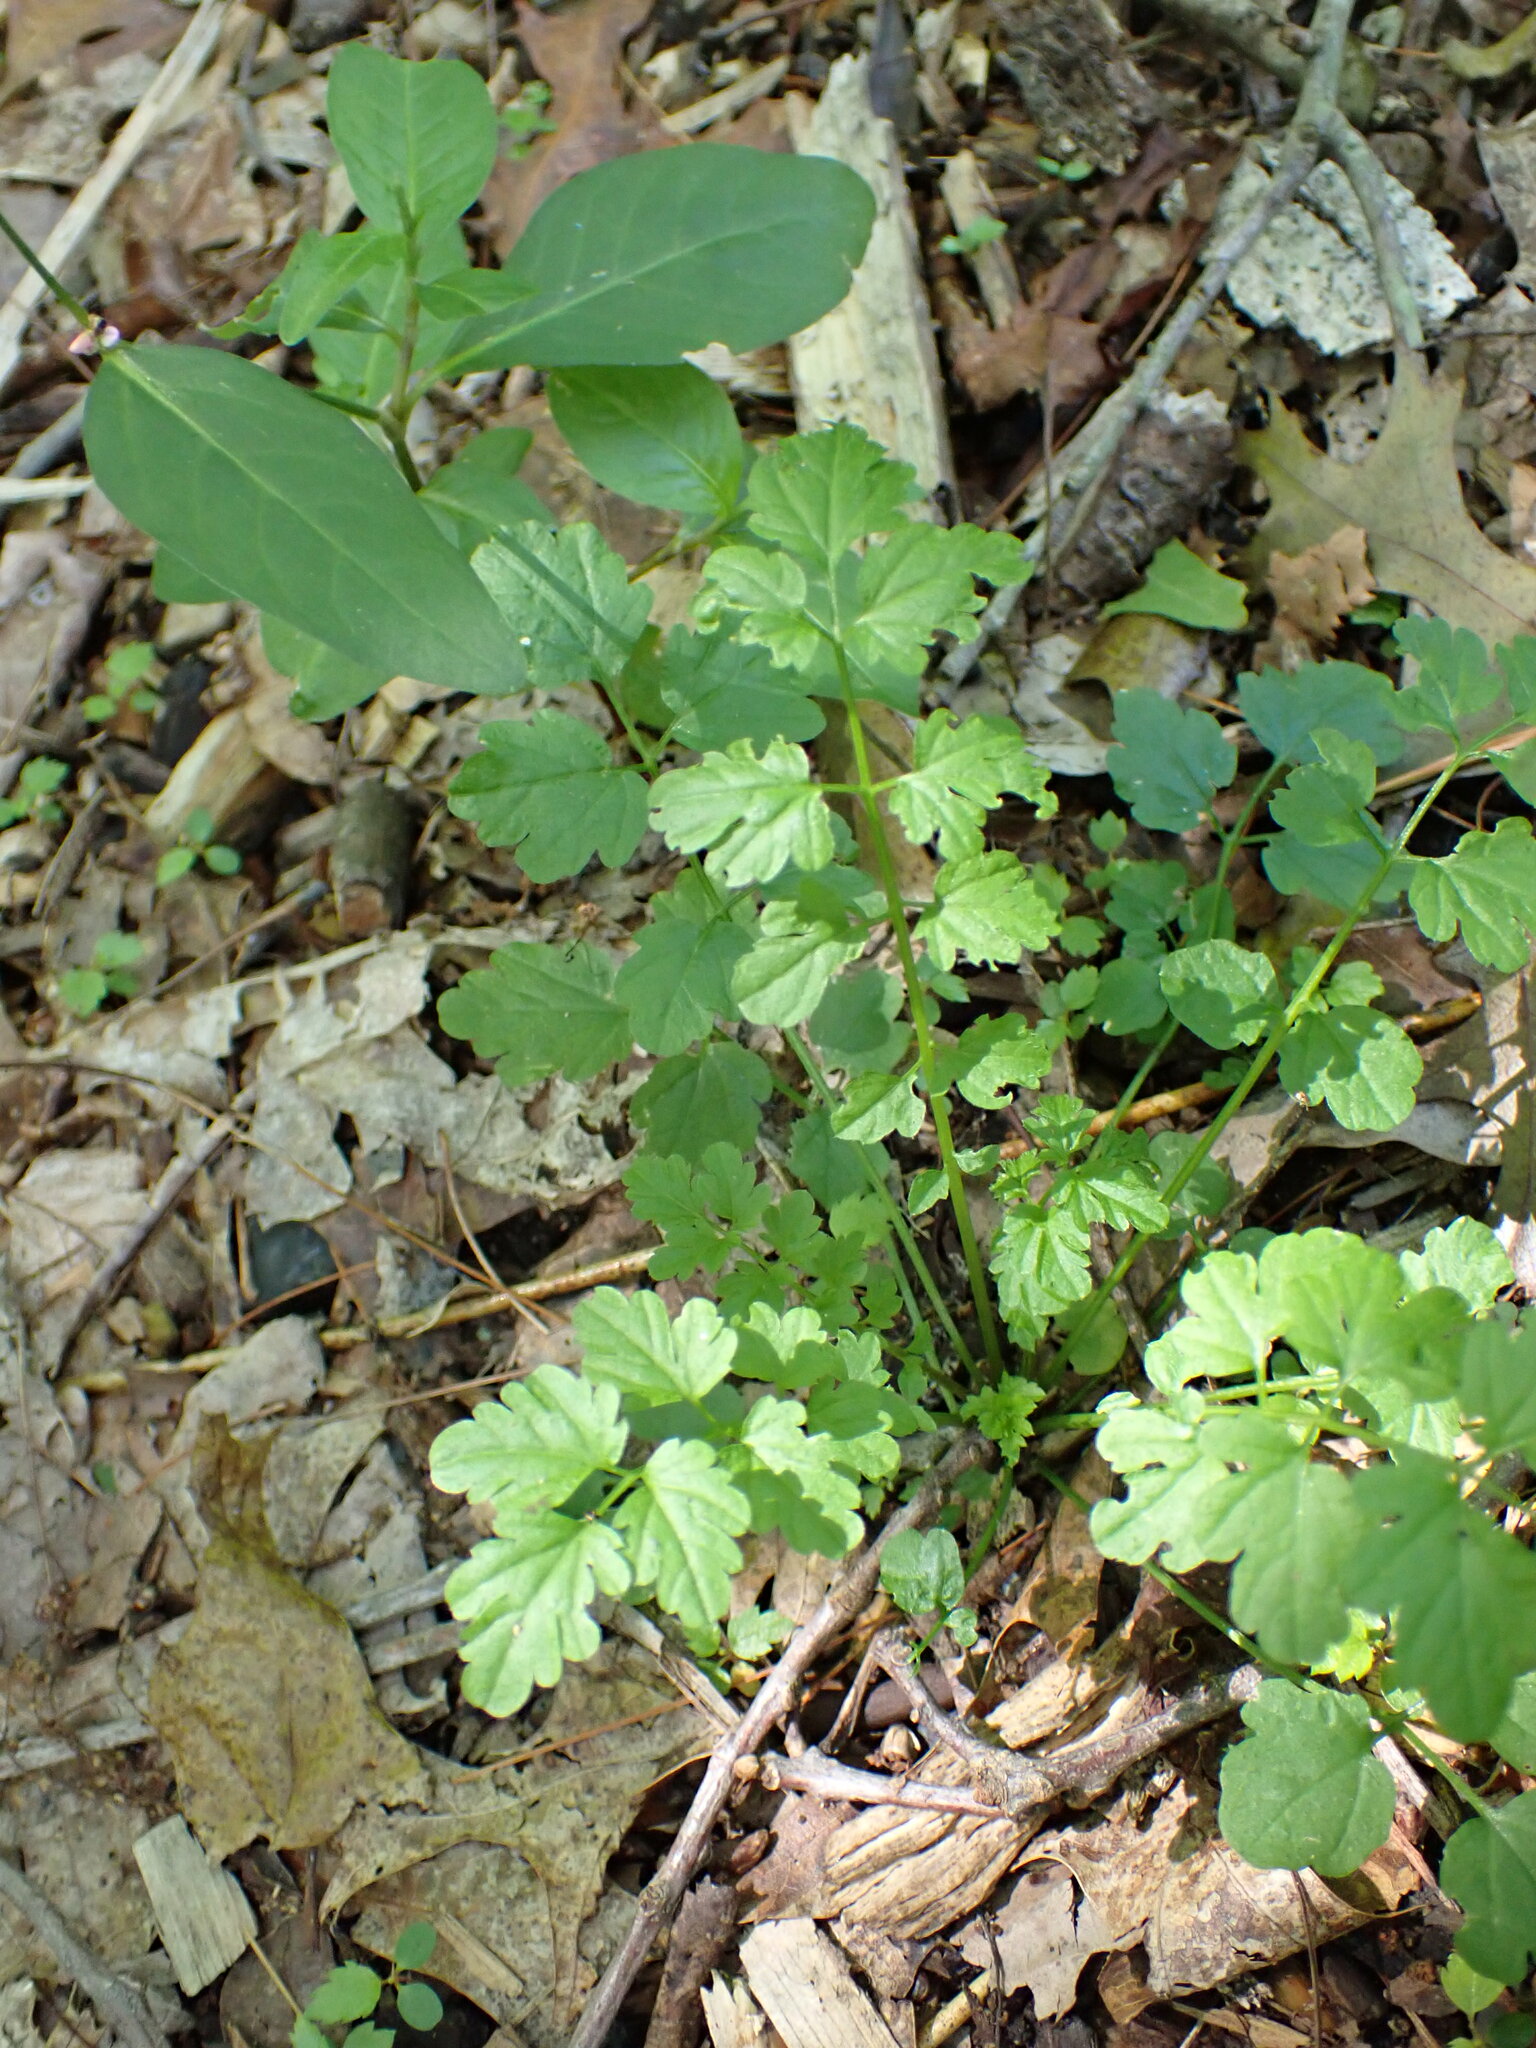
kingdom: Plantae
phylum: Tracheophyta
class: Magnoliopsida
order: Brassicales
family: Brassicaceae
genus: Cardamine
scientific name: Cardamine impatiens
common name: Narrow-leaved bitter-cress
